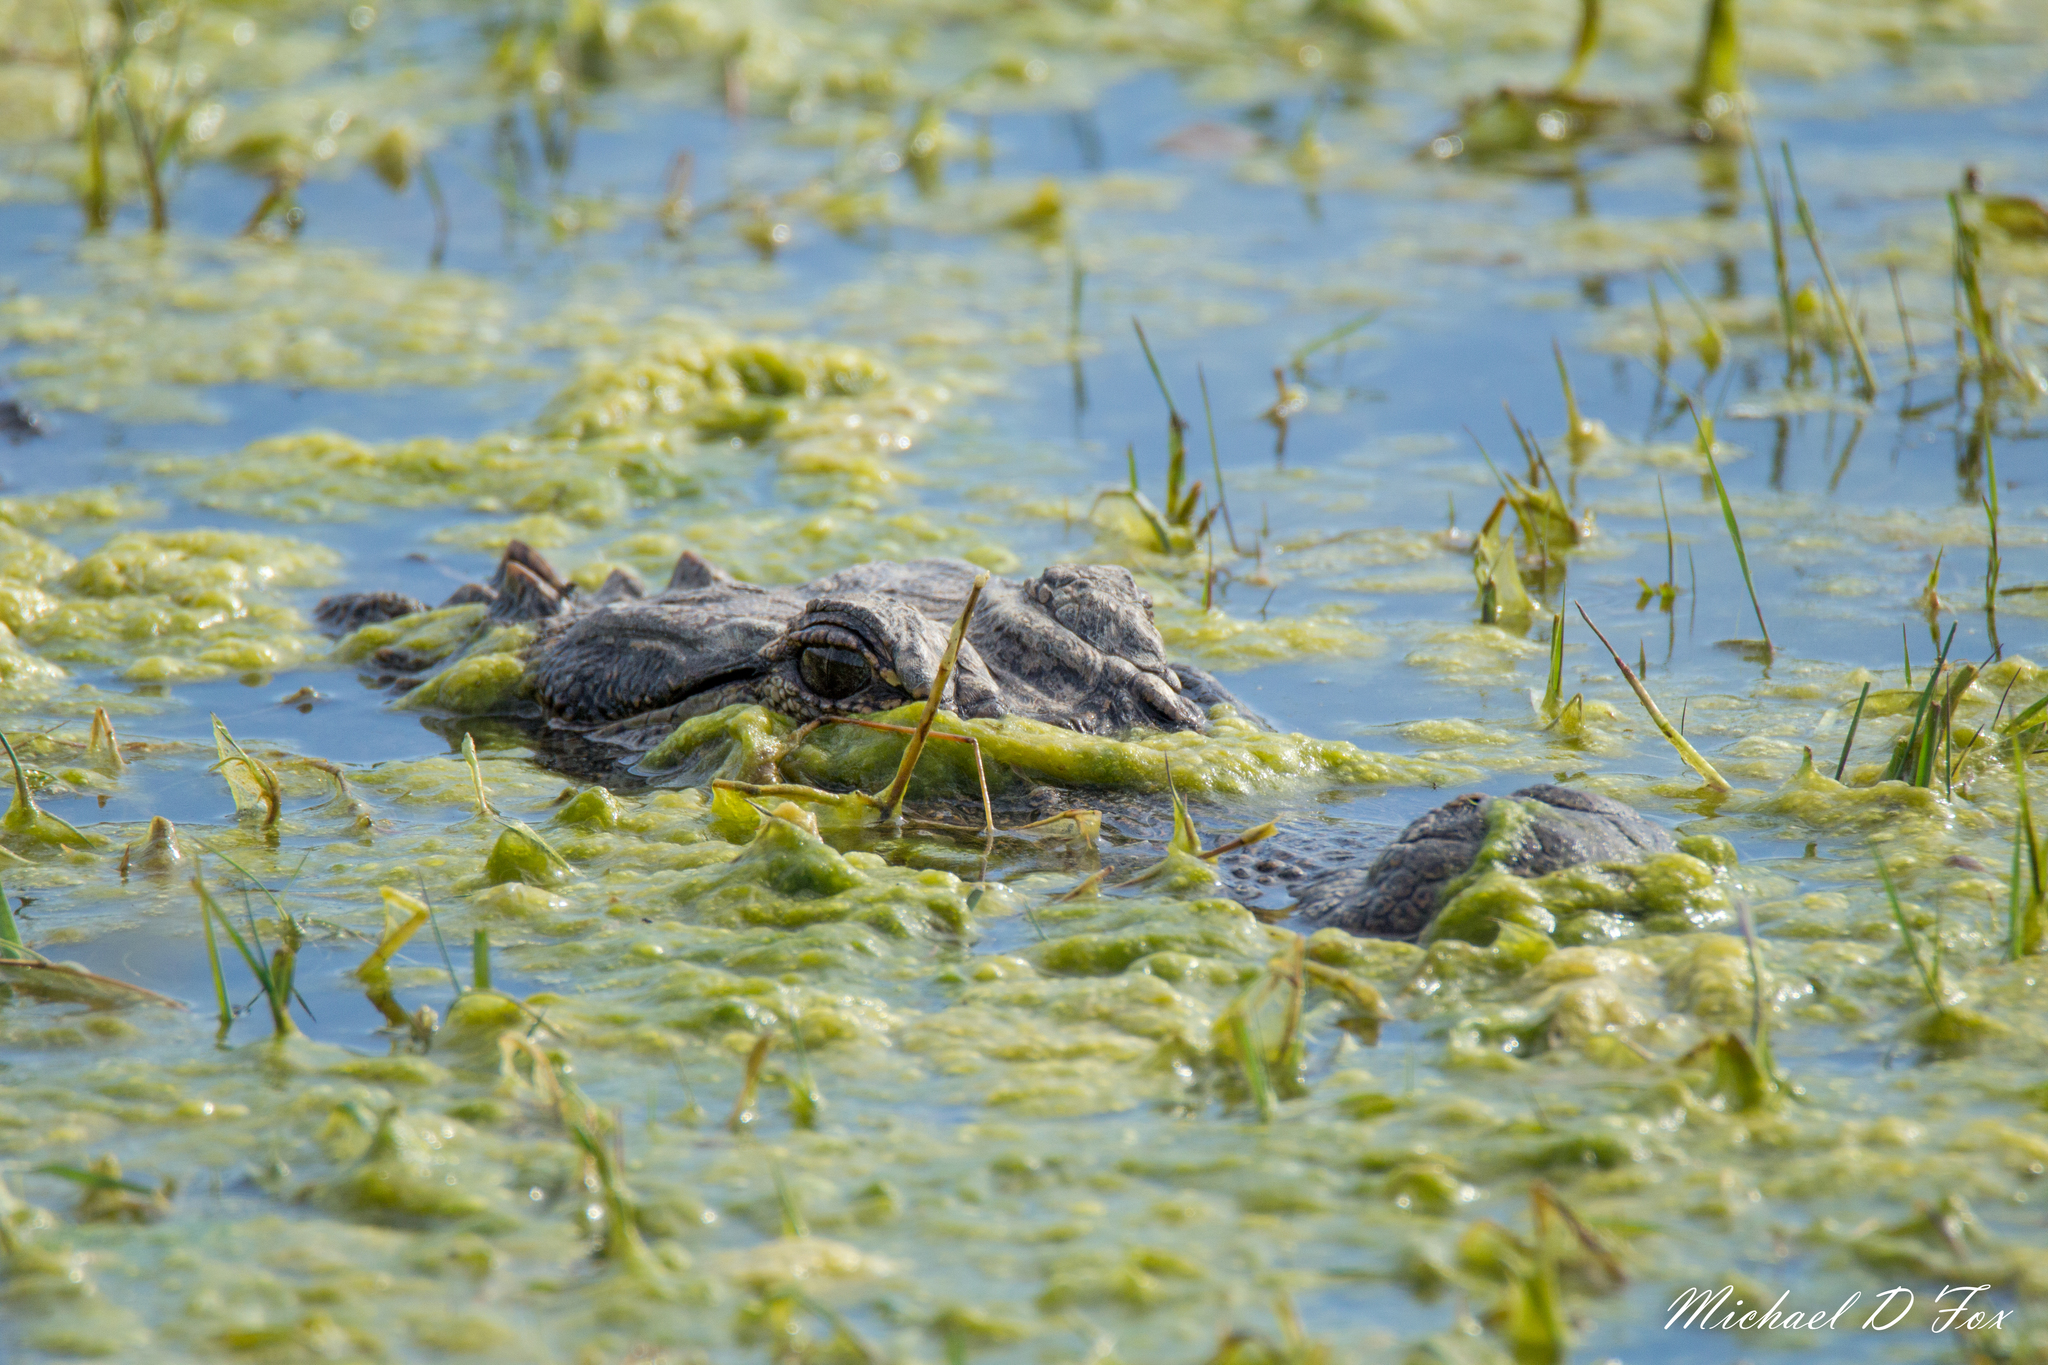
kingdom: Animalia
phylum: Chordata
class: Crocodylia
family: Alligatoridae
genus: Alligator
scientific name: Alligator mississippiensis
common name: American alligator
